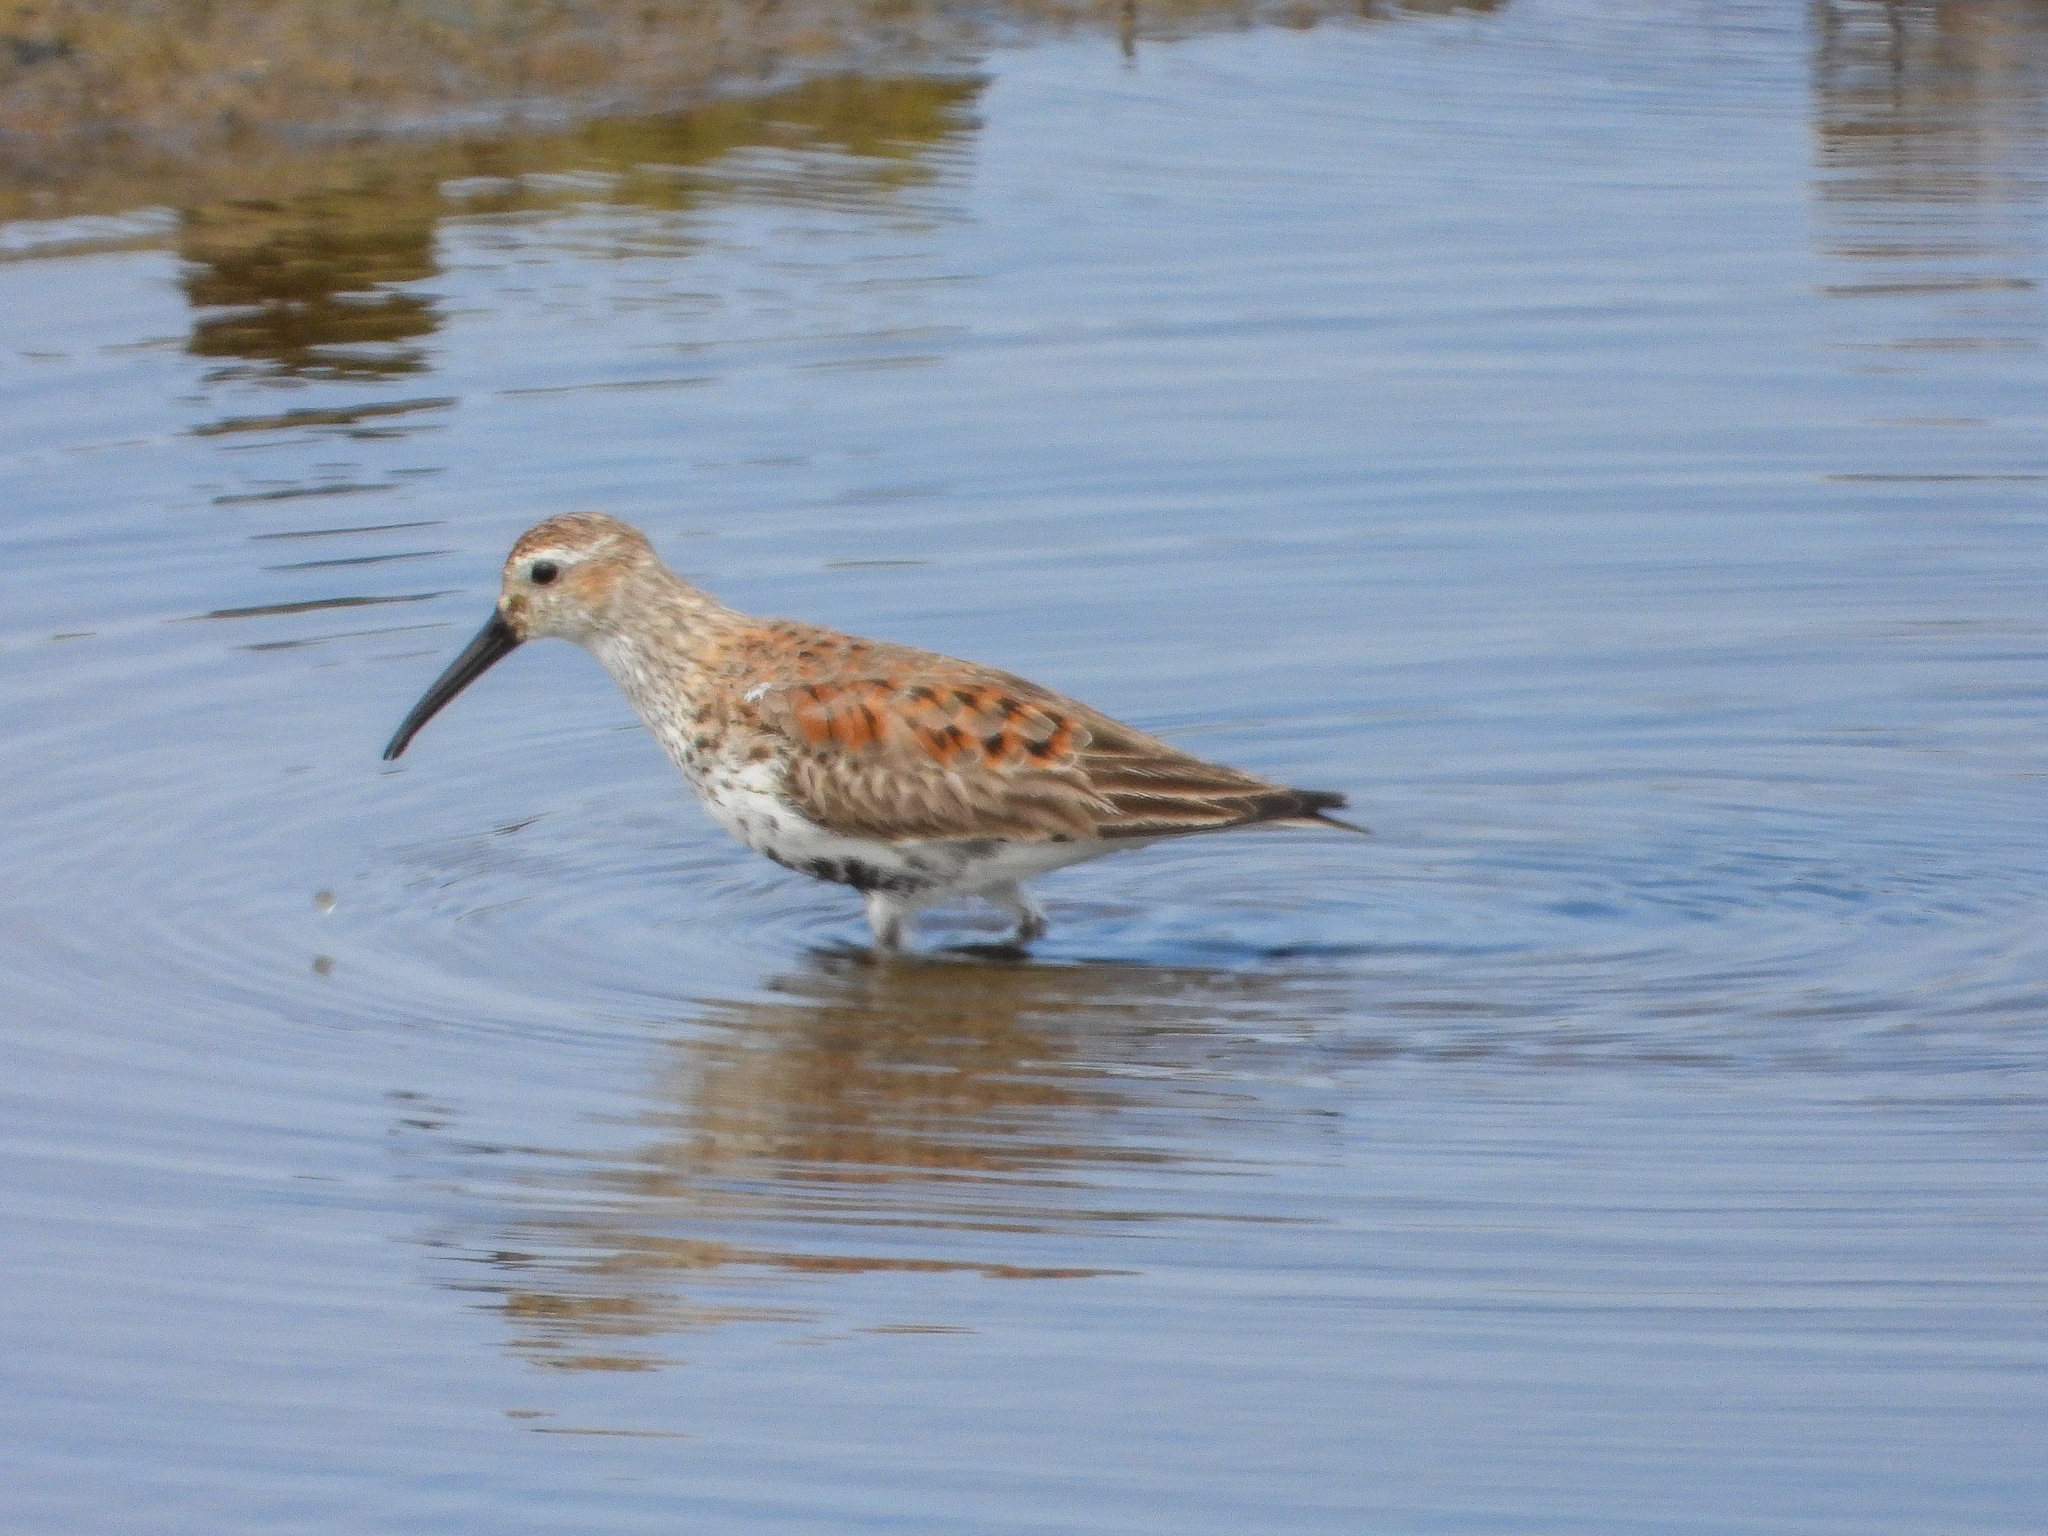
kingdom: Animalia
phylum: Chordata
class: Aves
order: Charadriiformes
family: Scolopacidae
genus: Calidris
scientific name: Calidris alpina
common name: Dunlin
